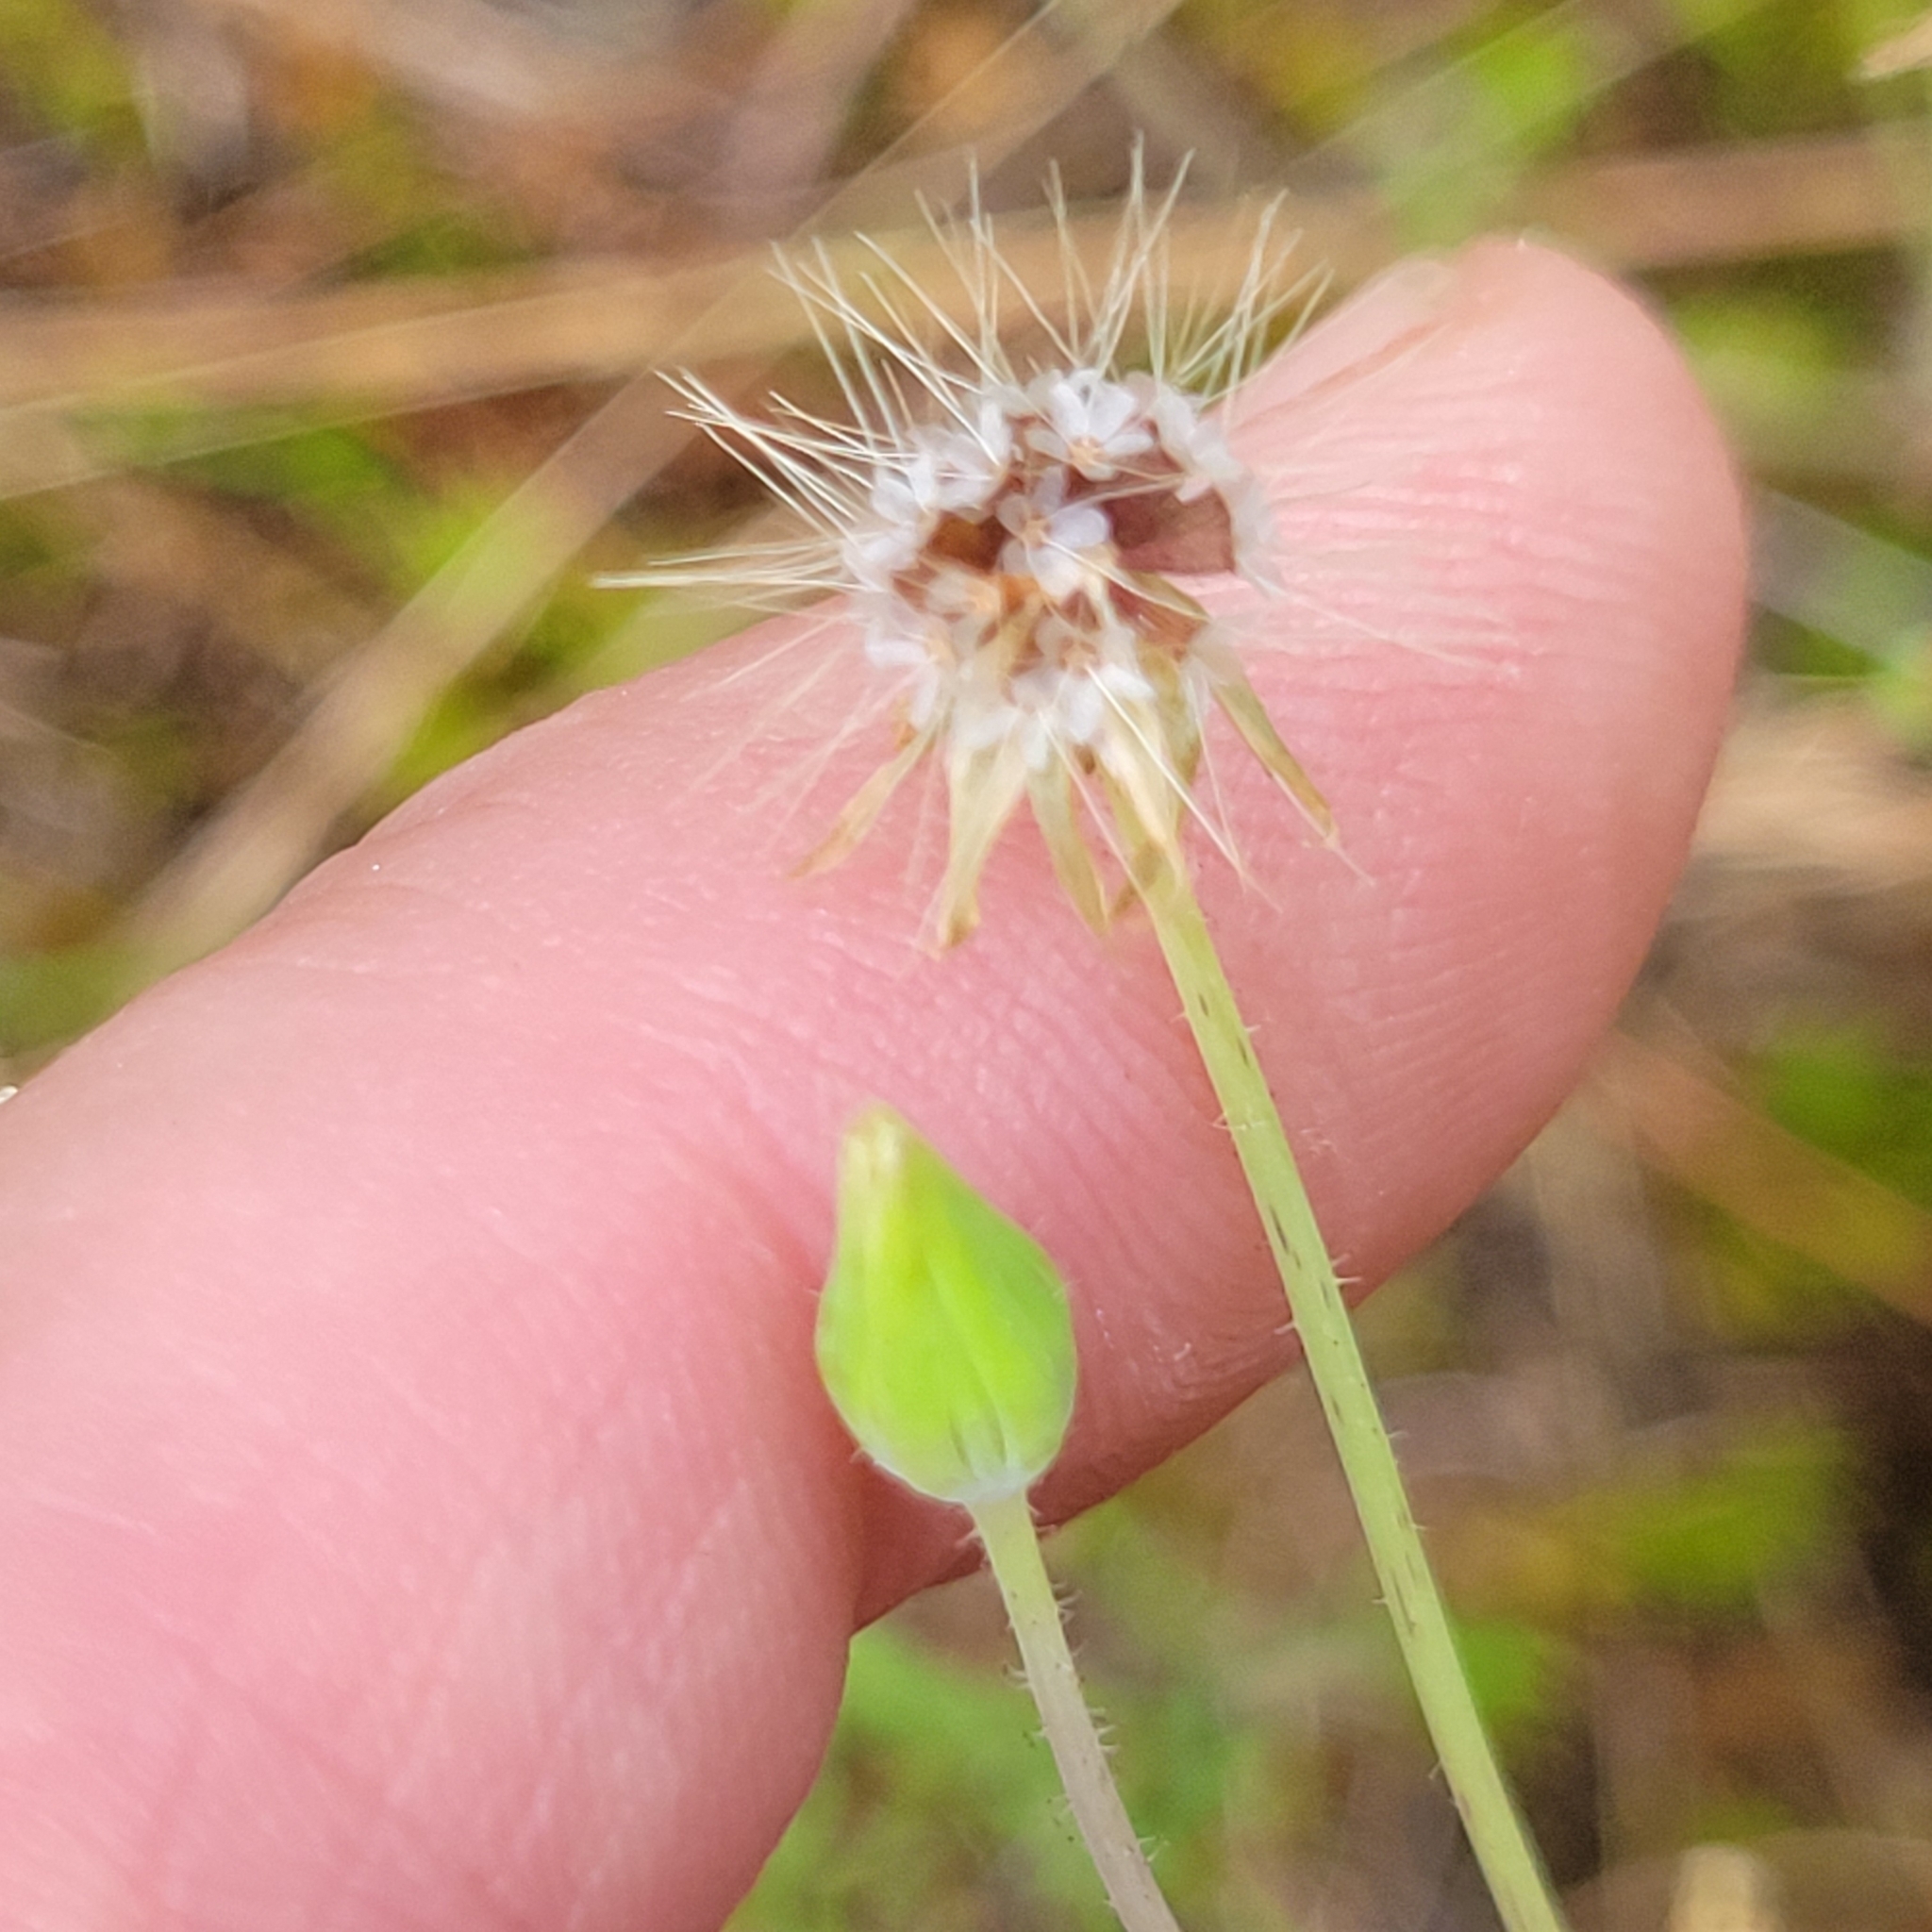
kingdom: Plantae
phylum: Tracheophyta
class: Magnoliopsida
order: Asterales
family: Asteraceae
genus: Krigia
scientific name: Krigia virginica
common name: Virginia dwarf-dandelion
